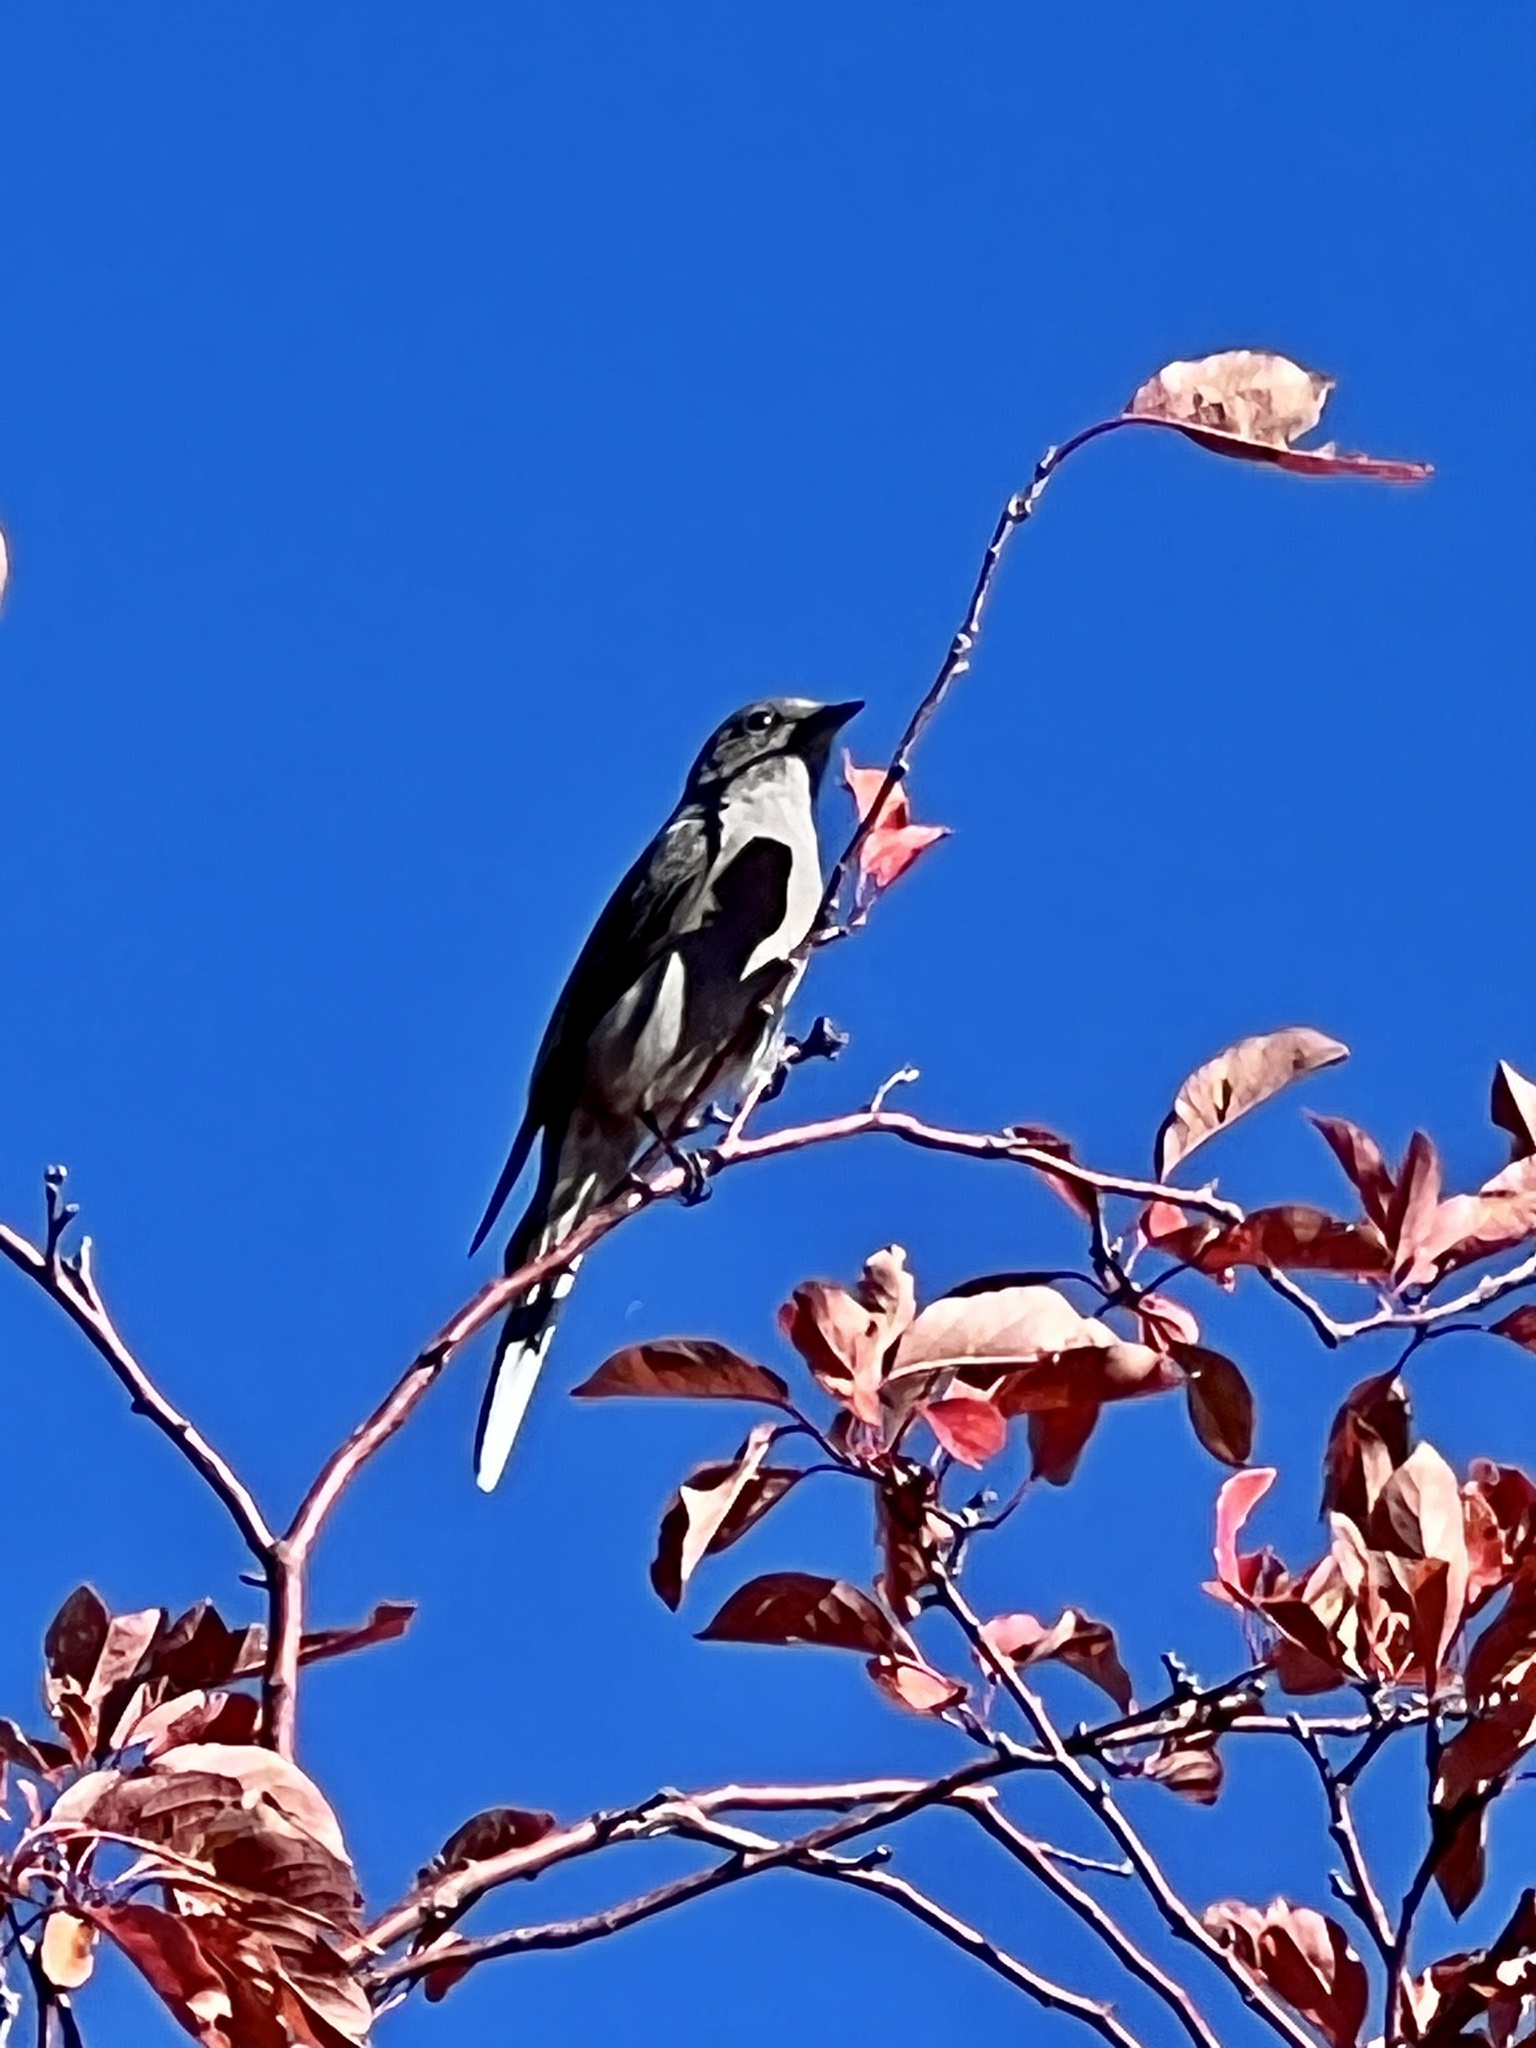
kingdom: Animalia
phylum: Chordata
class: Aves
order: Passeriformes
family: Turdidae
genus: Myadestes
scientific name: Myadestes townsendi
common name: Townsend's solitaire
